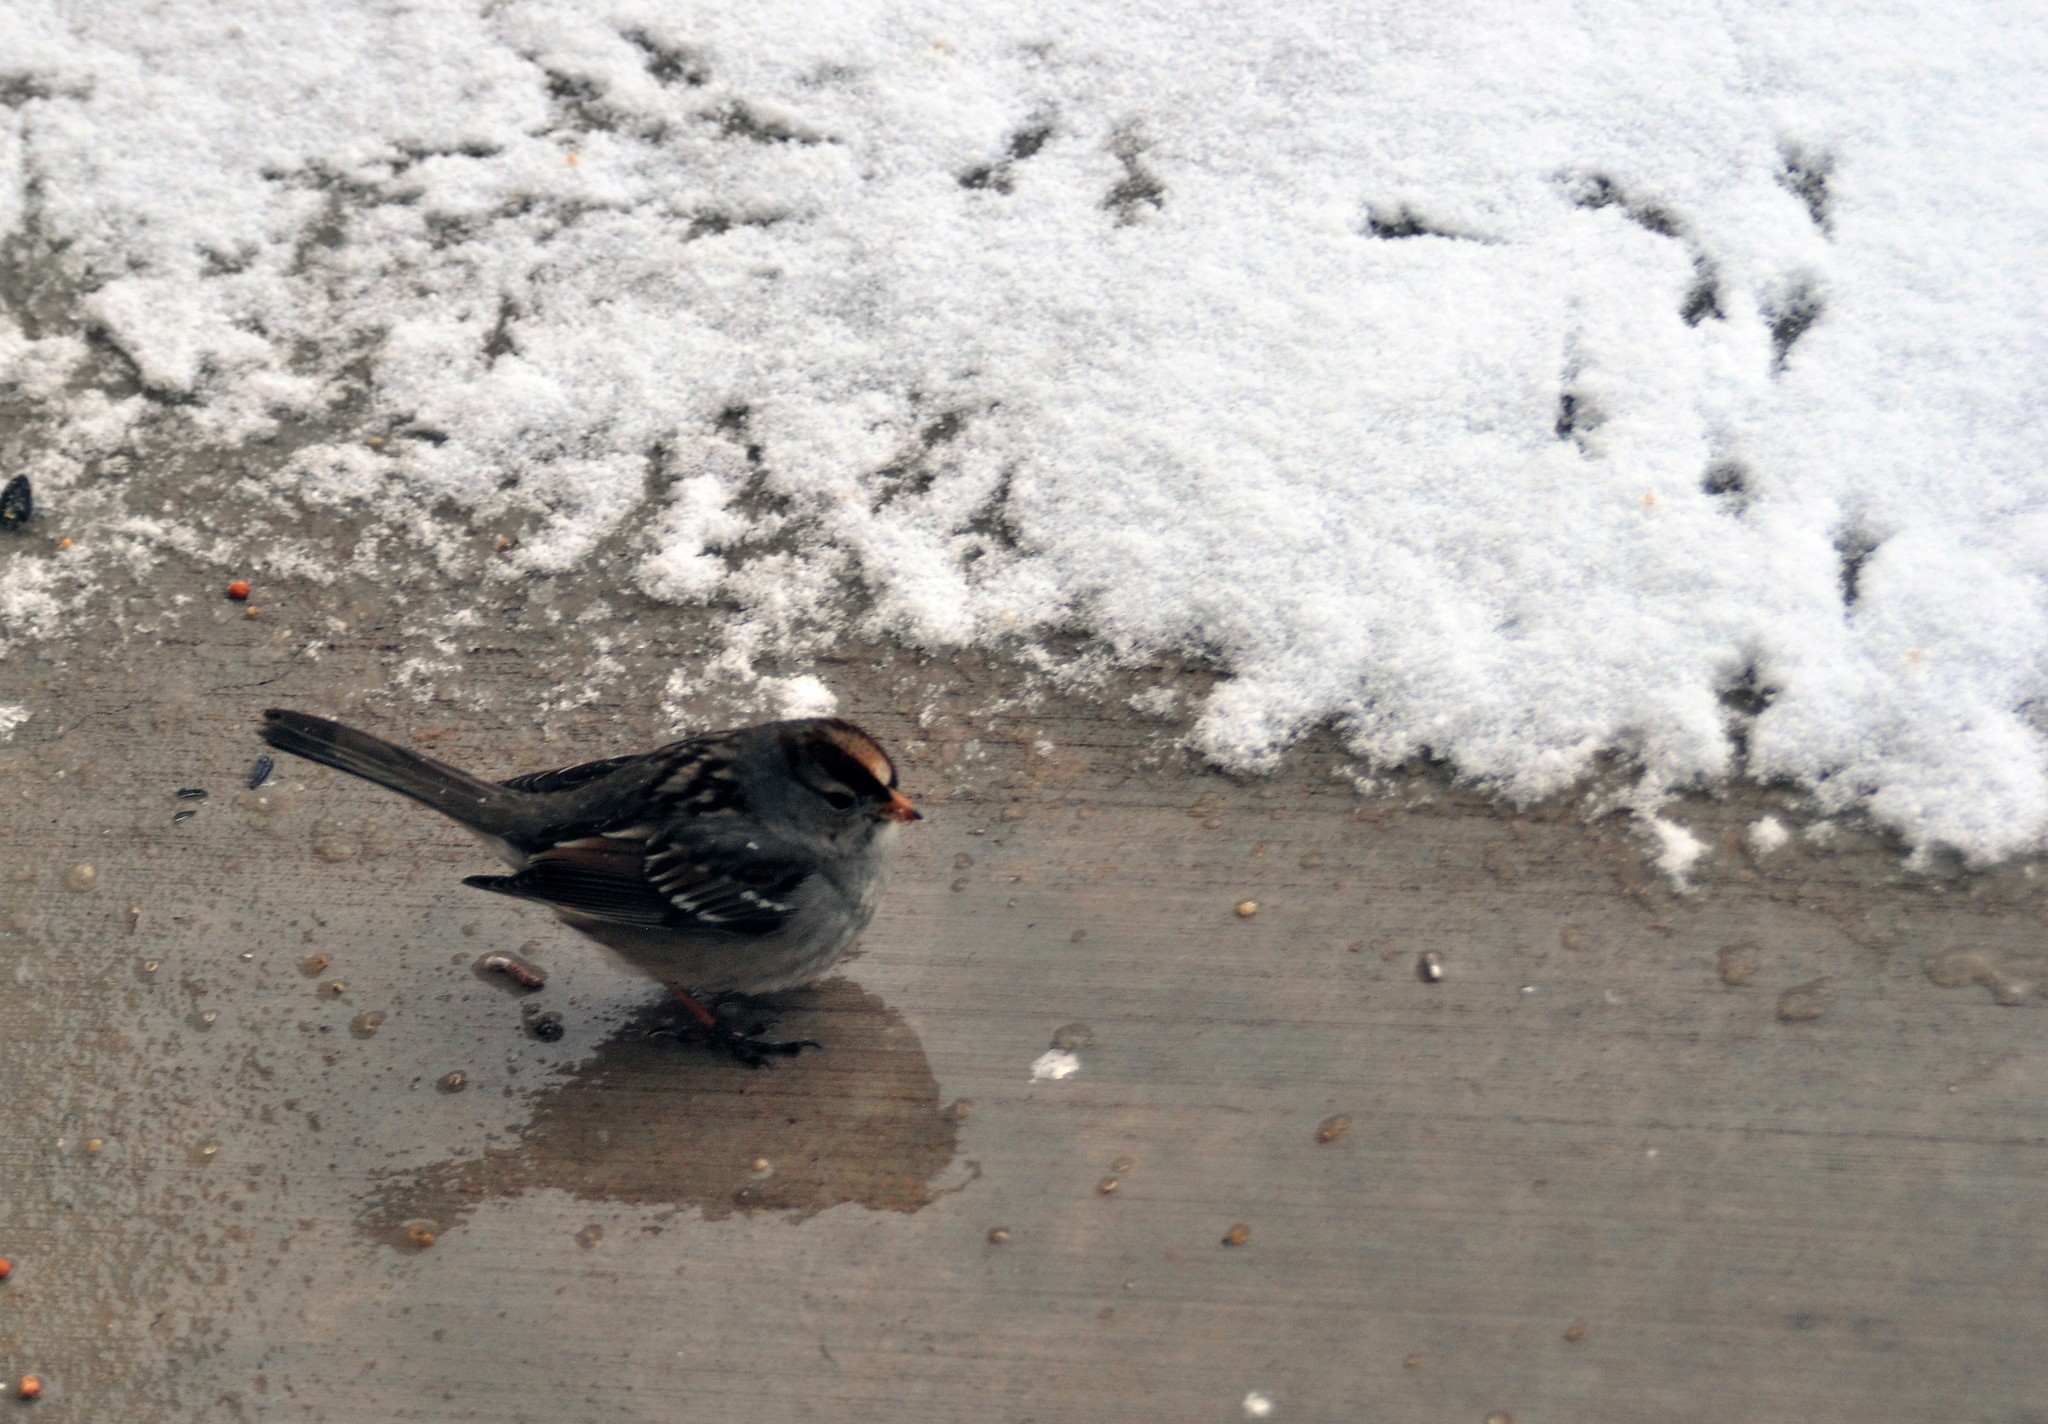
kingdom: Animalia
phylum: Chordata
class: Aves
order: Passeriformes
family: Passerellidae
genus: Zonotrichia
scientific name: Zonotrichia leucophrys
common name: White-crowned sparrow
